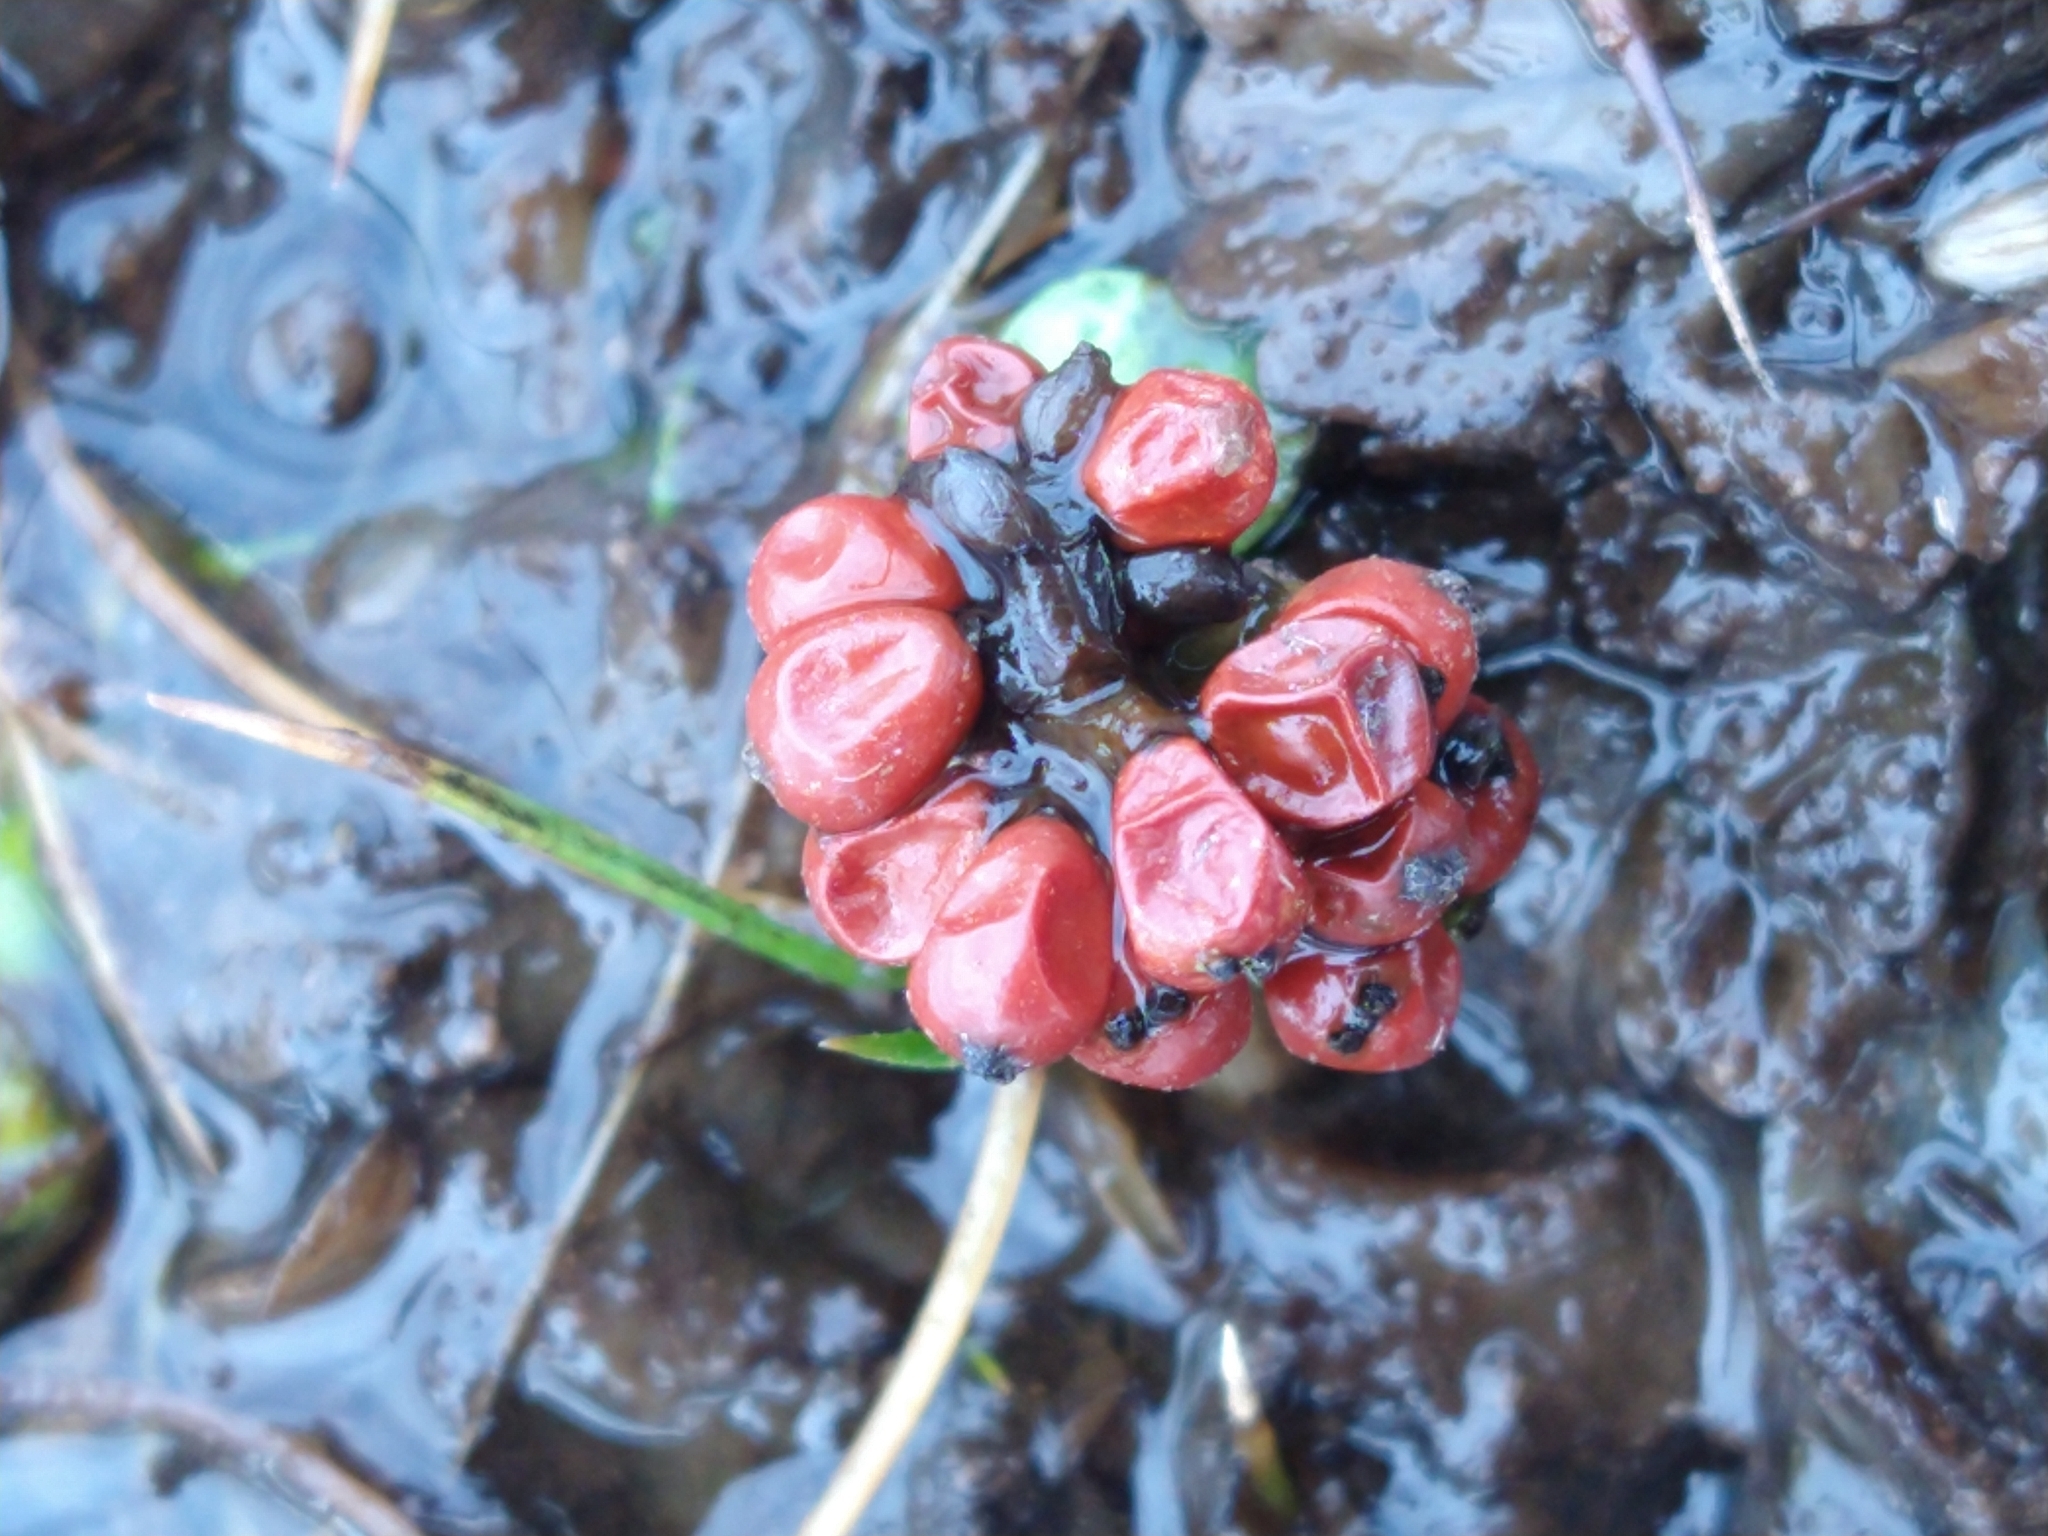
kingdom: Plantae
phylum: Tracheophyta
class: Magnoliopsida
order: Gunnerales
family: Gunneraceae
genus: Gunnera
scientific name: Gunnera magellanica
